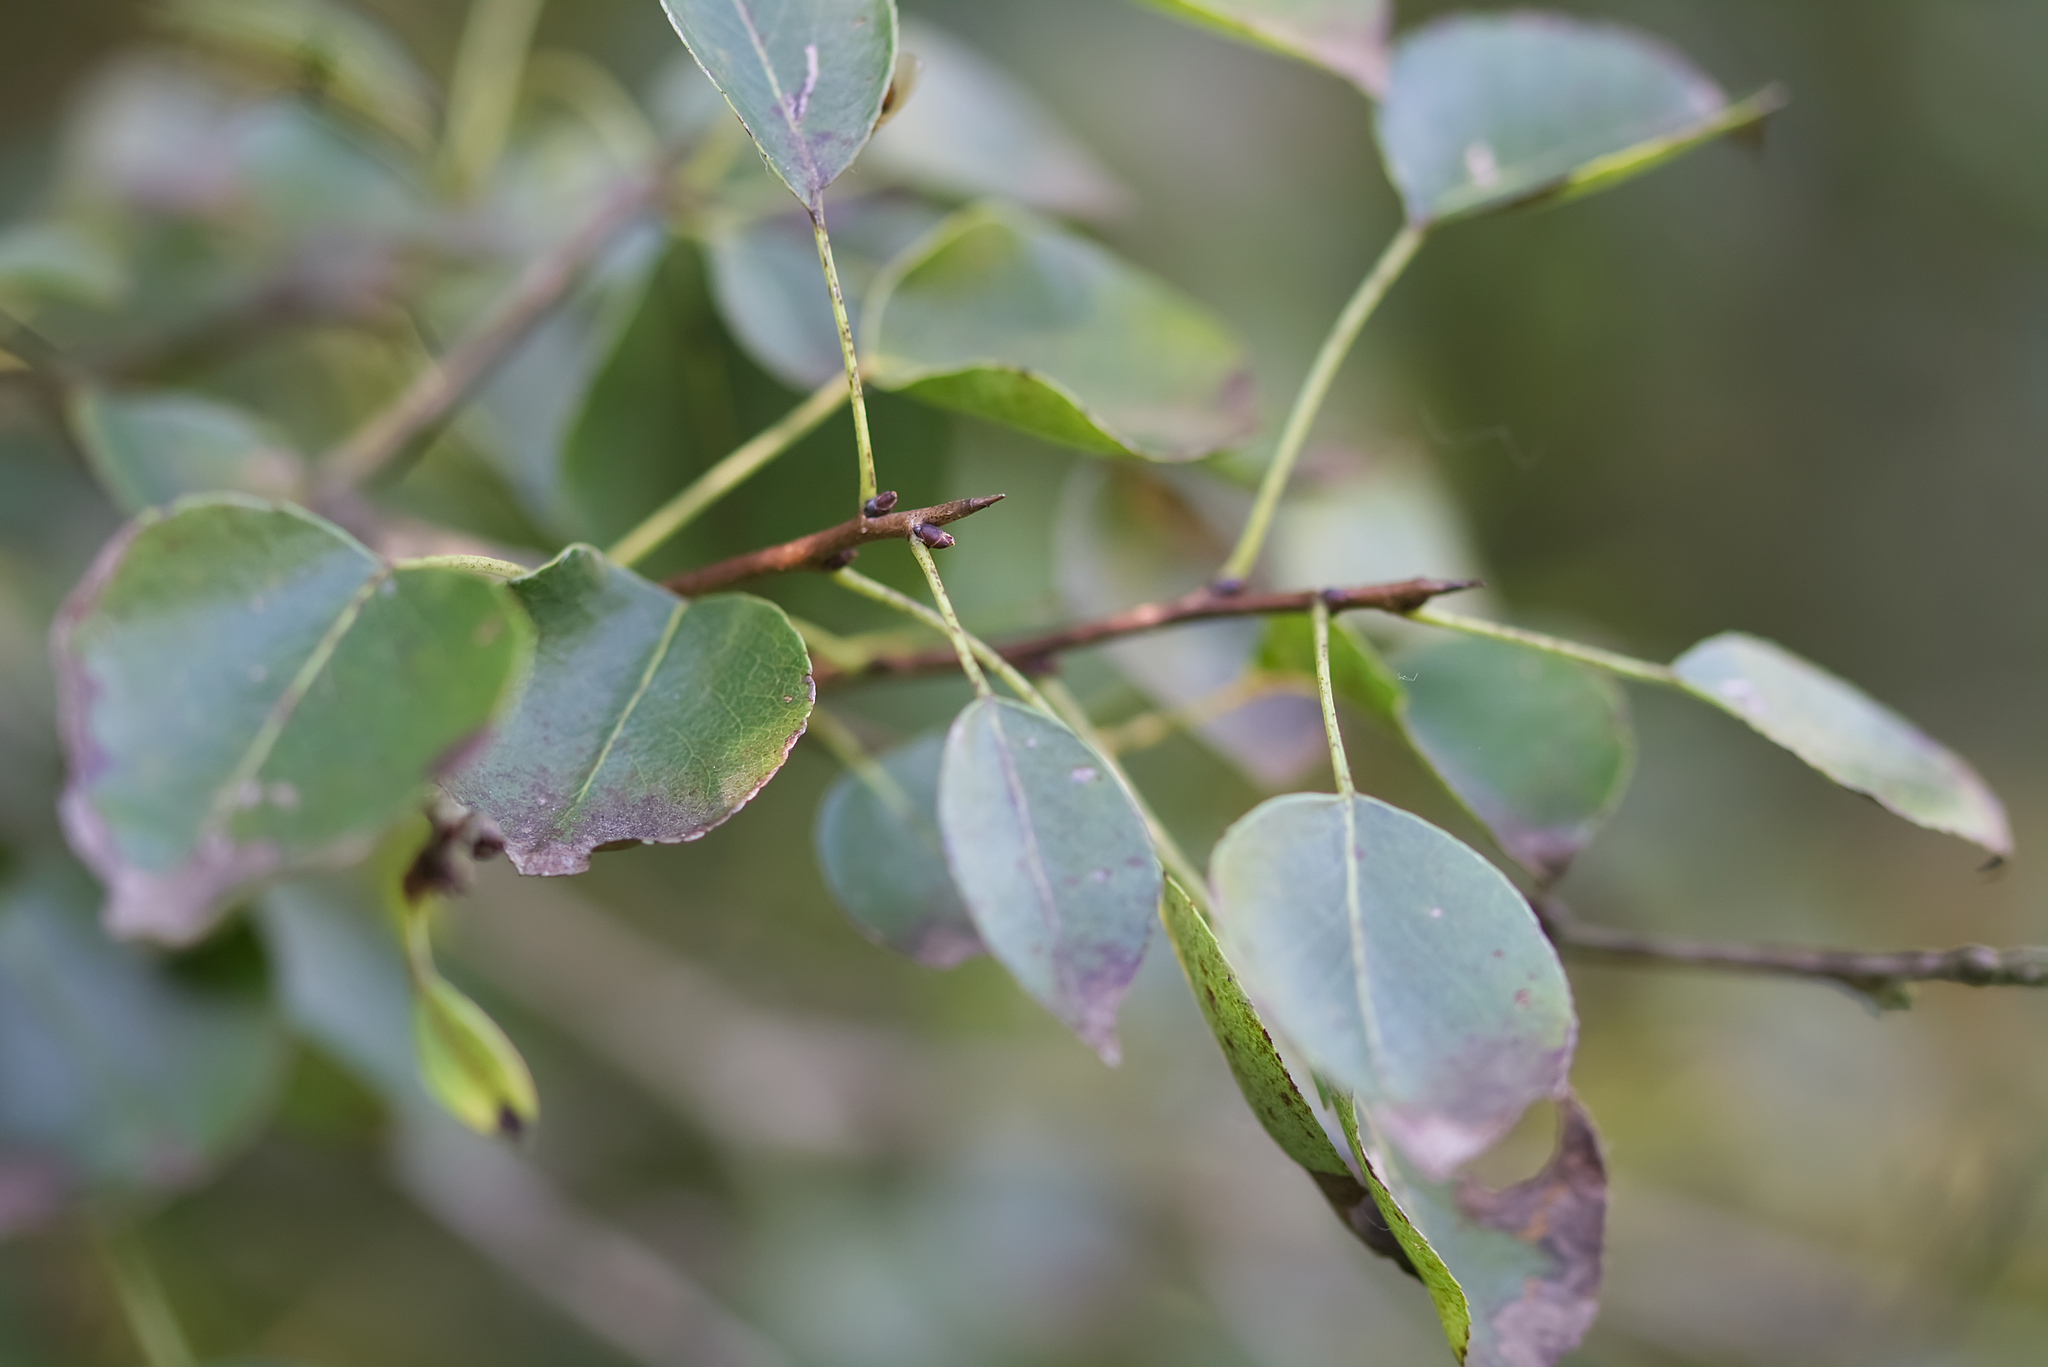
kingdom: Plantae
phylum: Tracheophyta
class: Magnoliopsida
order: Rosales
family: Rosaceae
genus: Pyrus
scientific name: Pyrus
